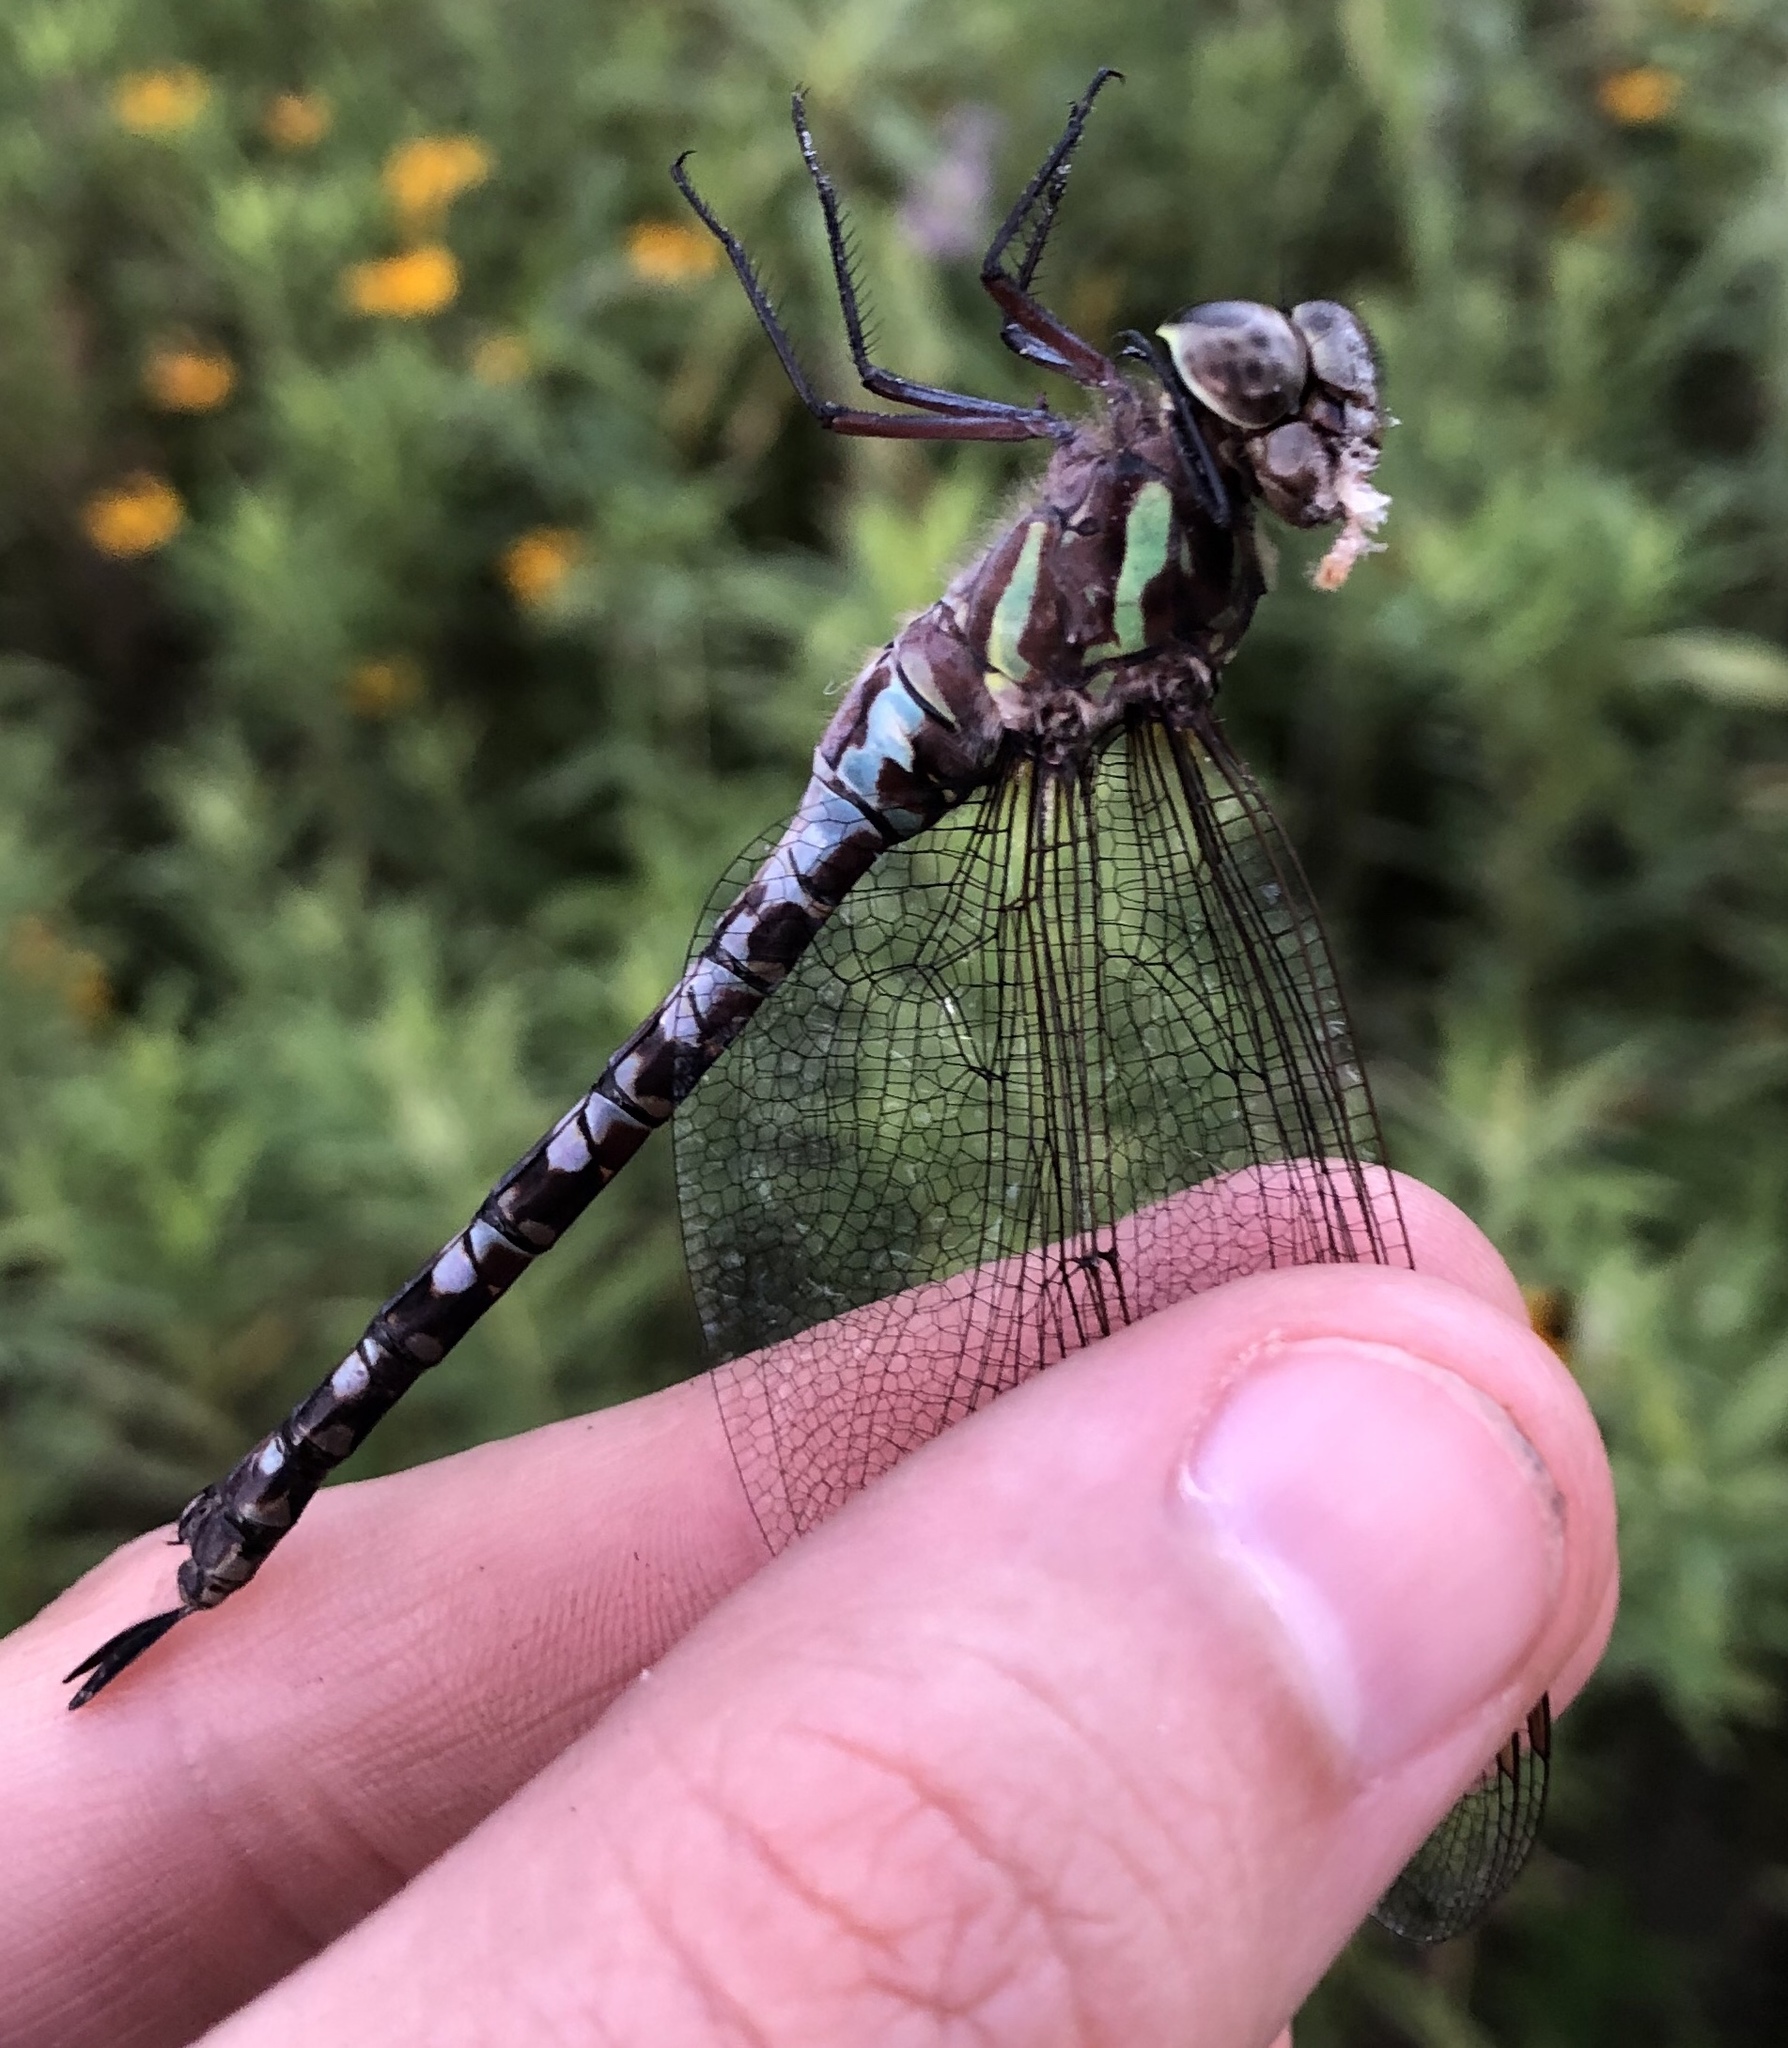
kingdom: Animalia
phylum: Arthropoda
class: Insecta
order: Odonata
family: Aeshnidae
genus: Aeshna
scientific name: Aeshna verticalis
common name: Green-striped darner
